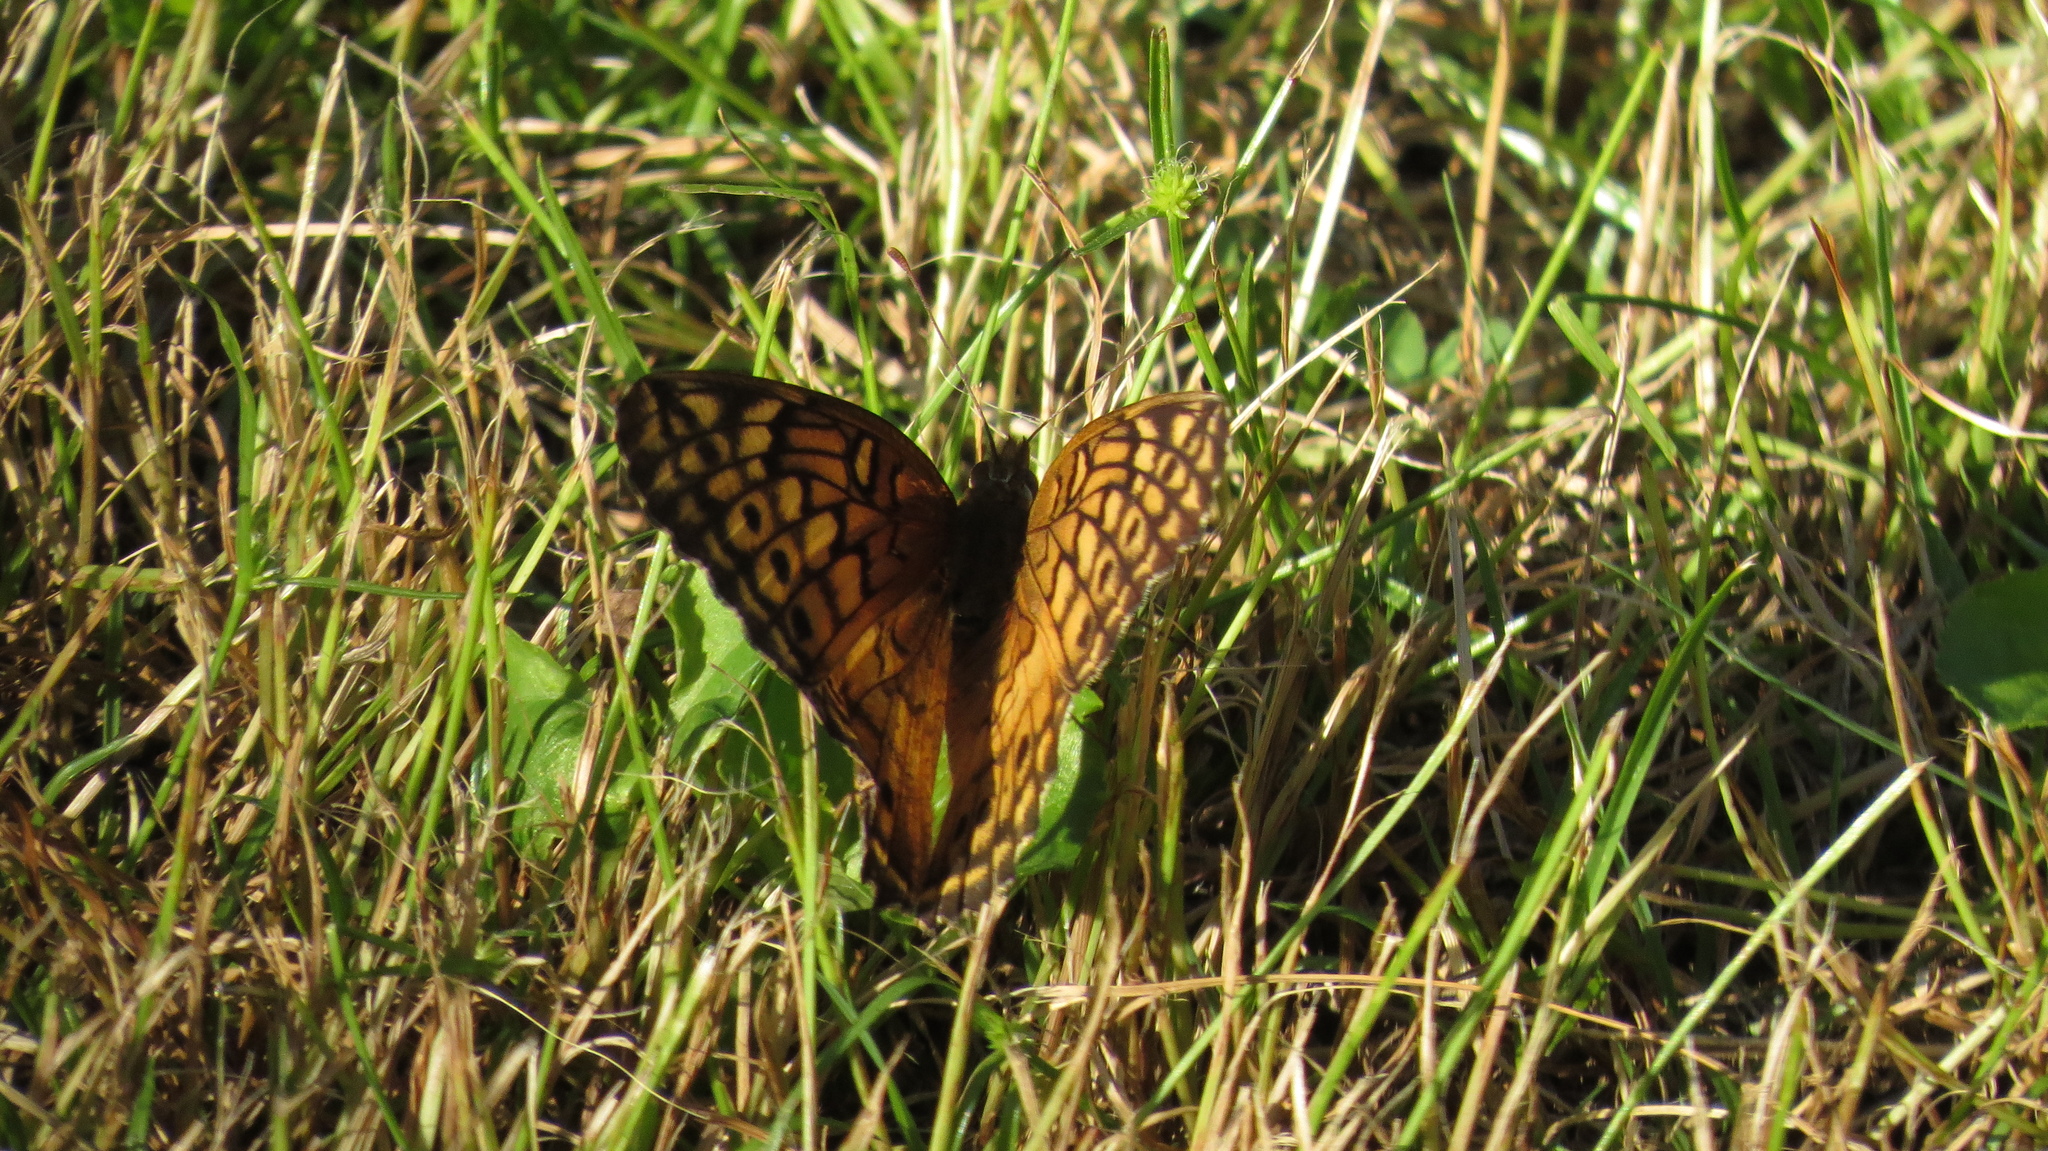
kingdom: Animalia
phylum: Arthropoda
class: Insecta
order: Lepidoptera
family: Nymphalidae
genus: Euptoieta
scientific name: Euptoieta claudia
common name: Variegated fritillary
